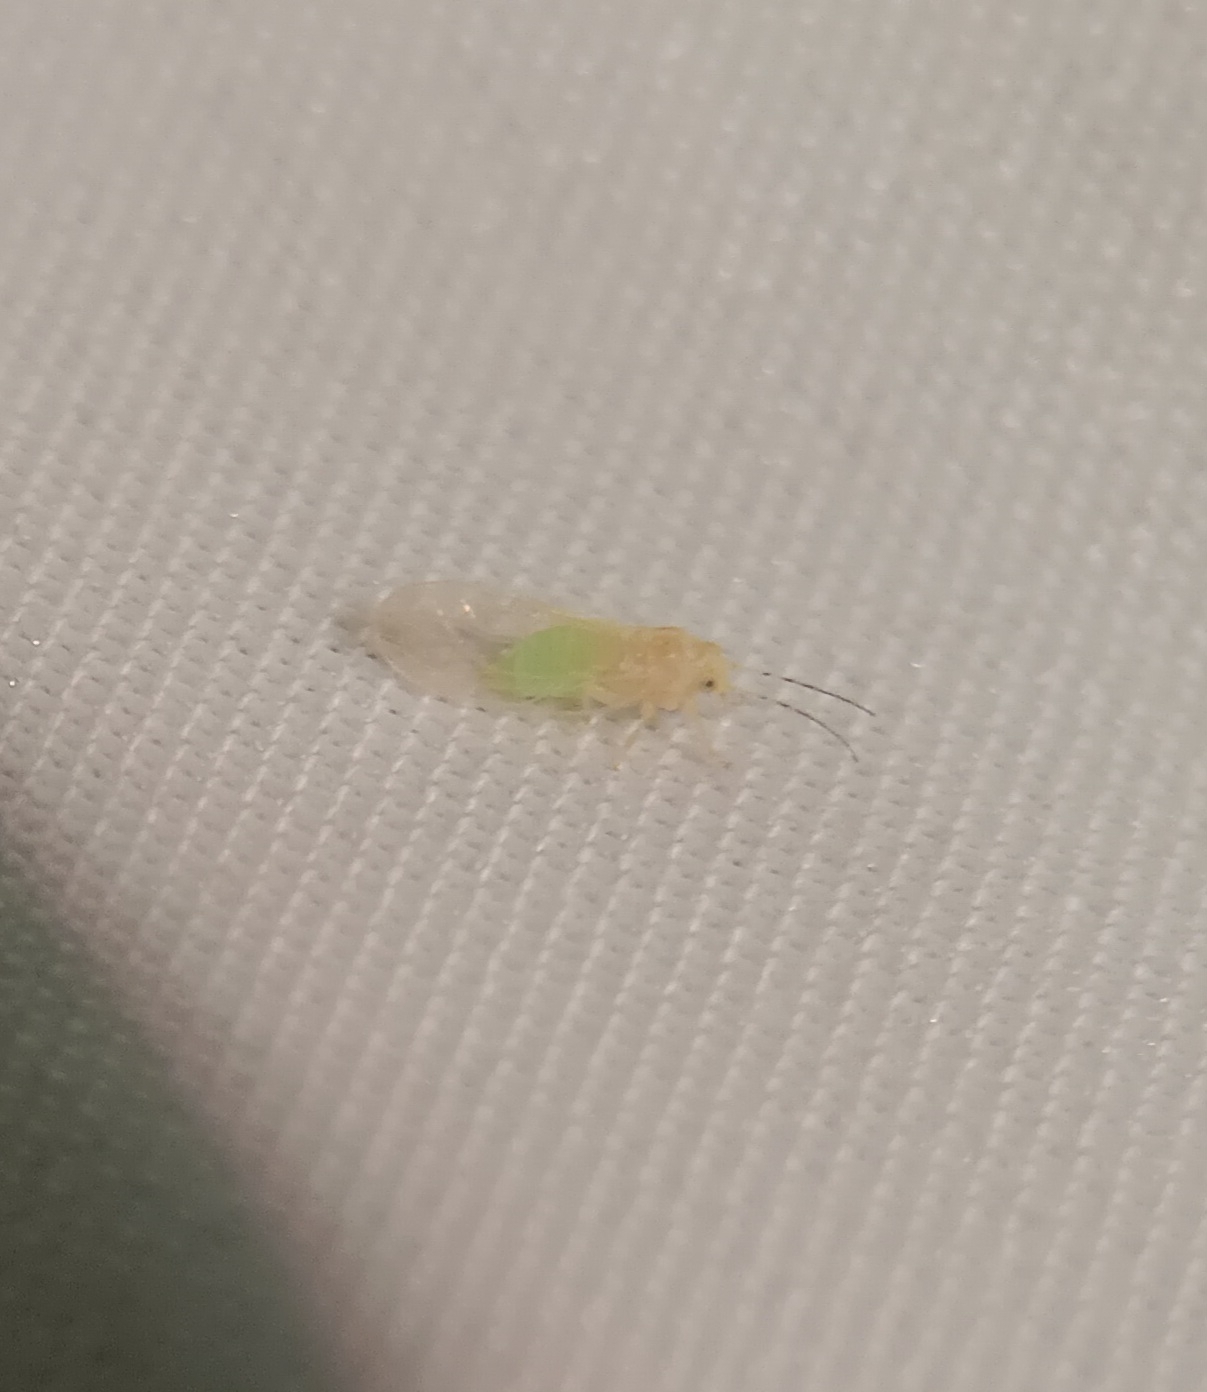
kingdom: Animalia
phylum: Arthropoda
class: Insecta
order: Hemiptera
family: Psyllidae
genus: Cacopsylla
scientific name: Cacopsylla annulata
